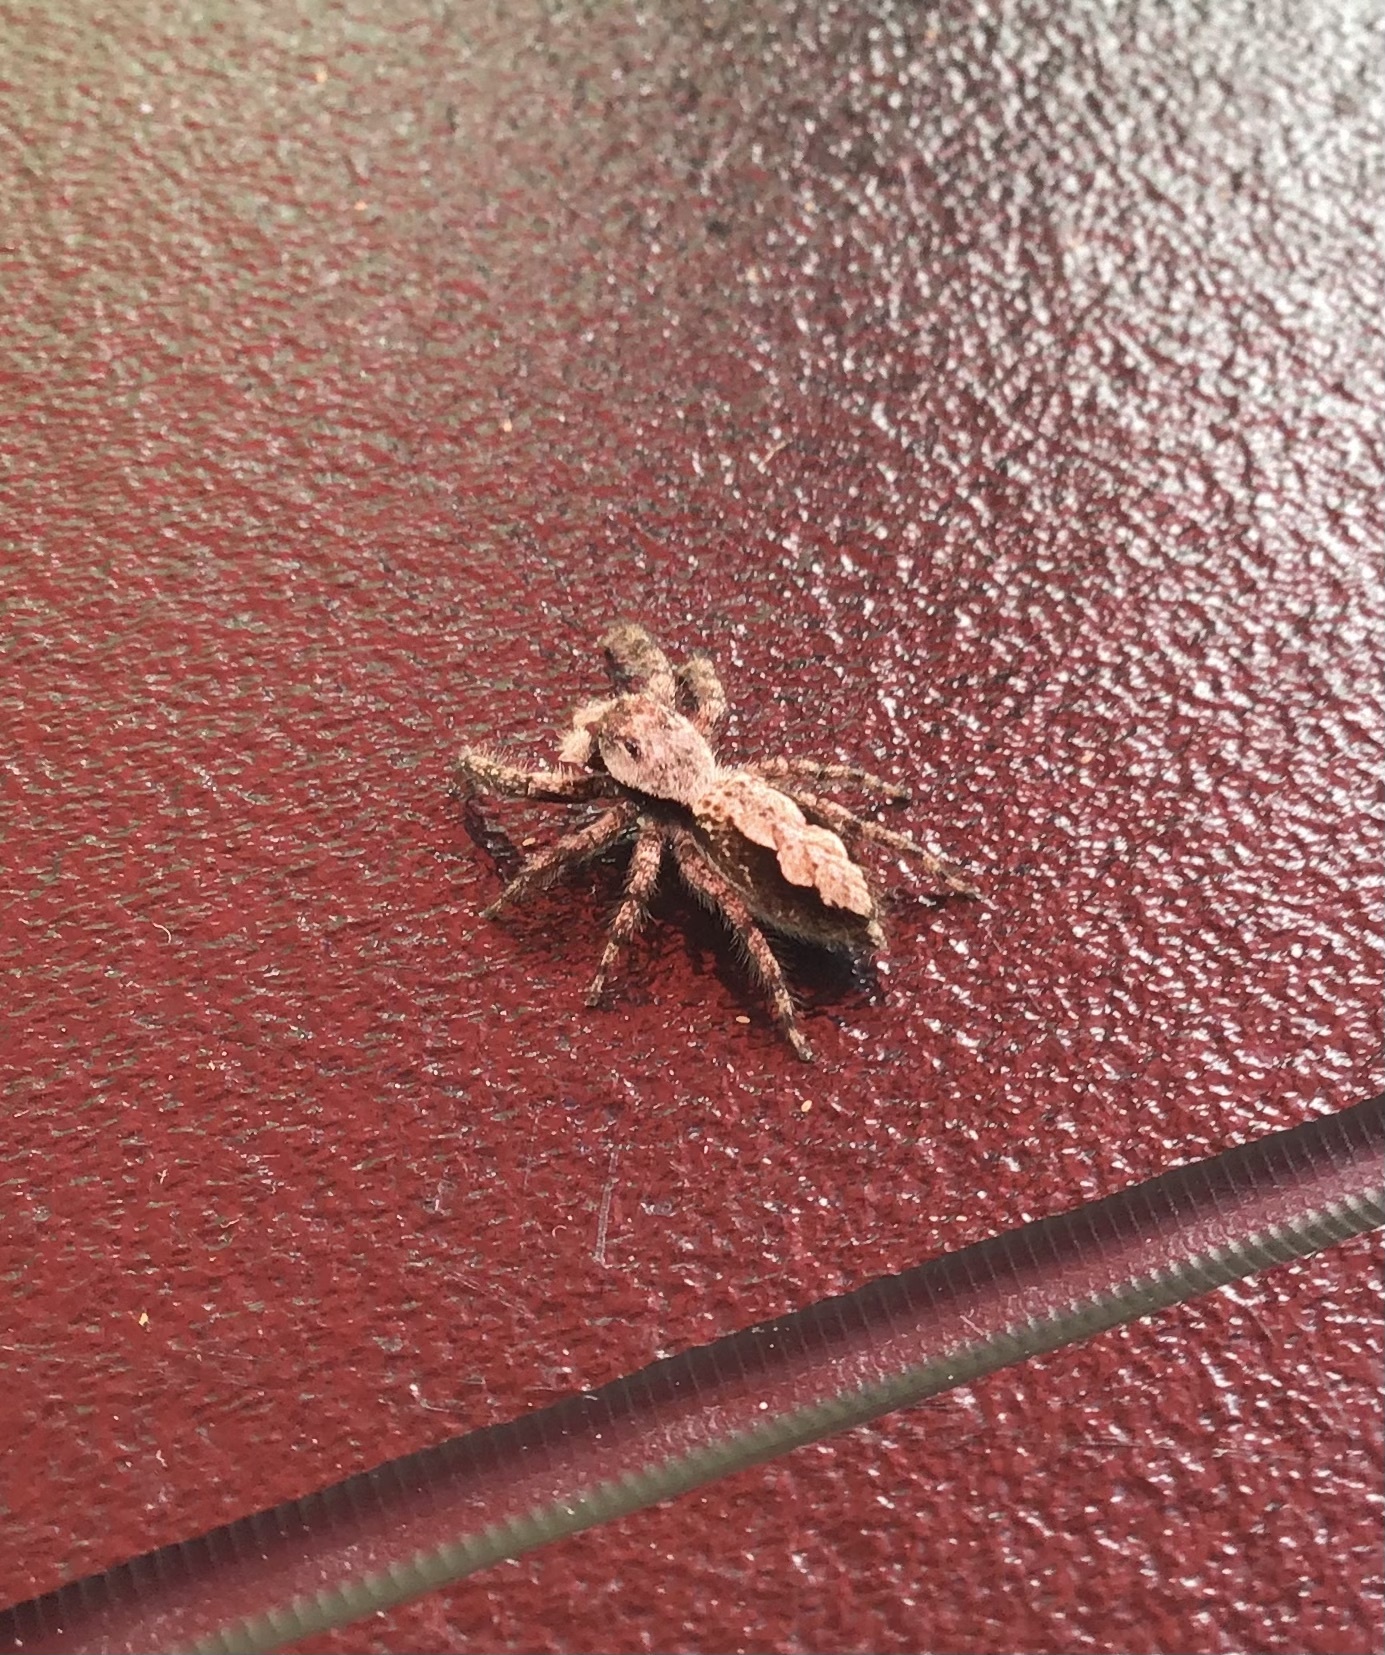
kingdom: Animalia
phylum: Arthropoda
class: Arachnida
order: Araneae
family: Salticidae
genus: Platycryptus
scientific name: Platycryptus undatus
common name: Tan jumping spider
